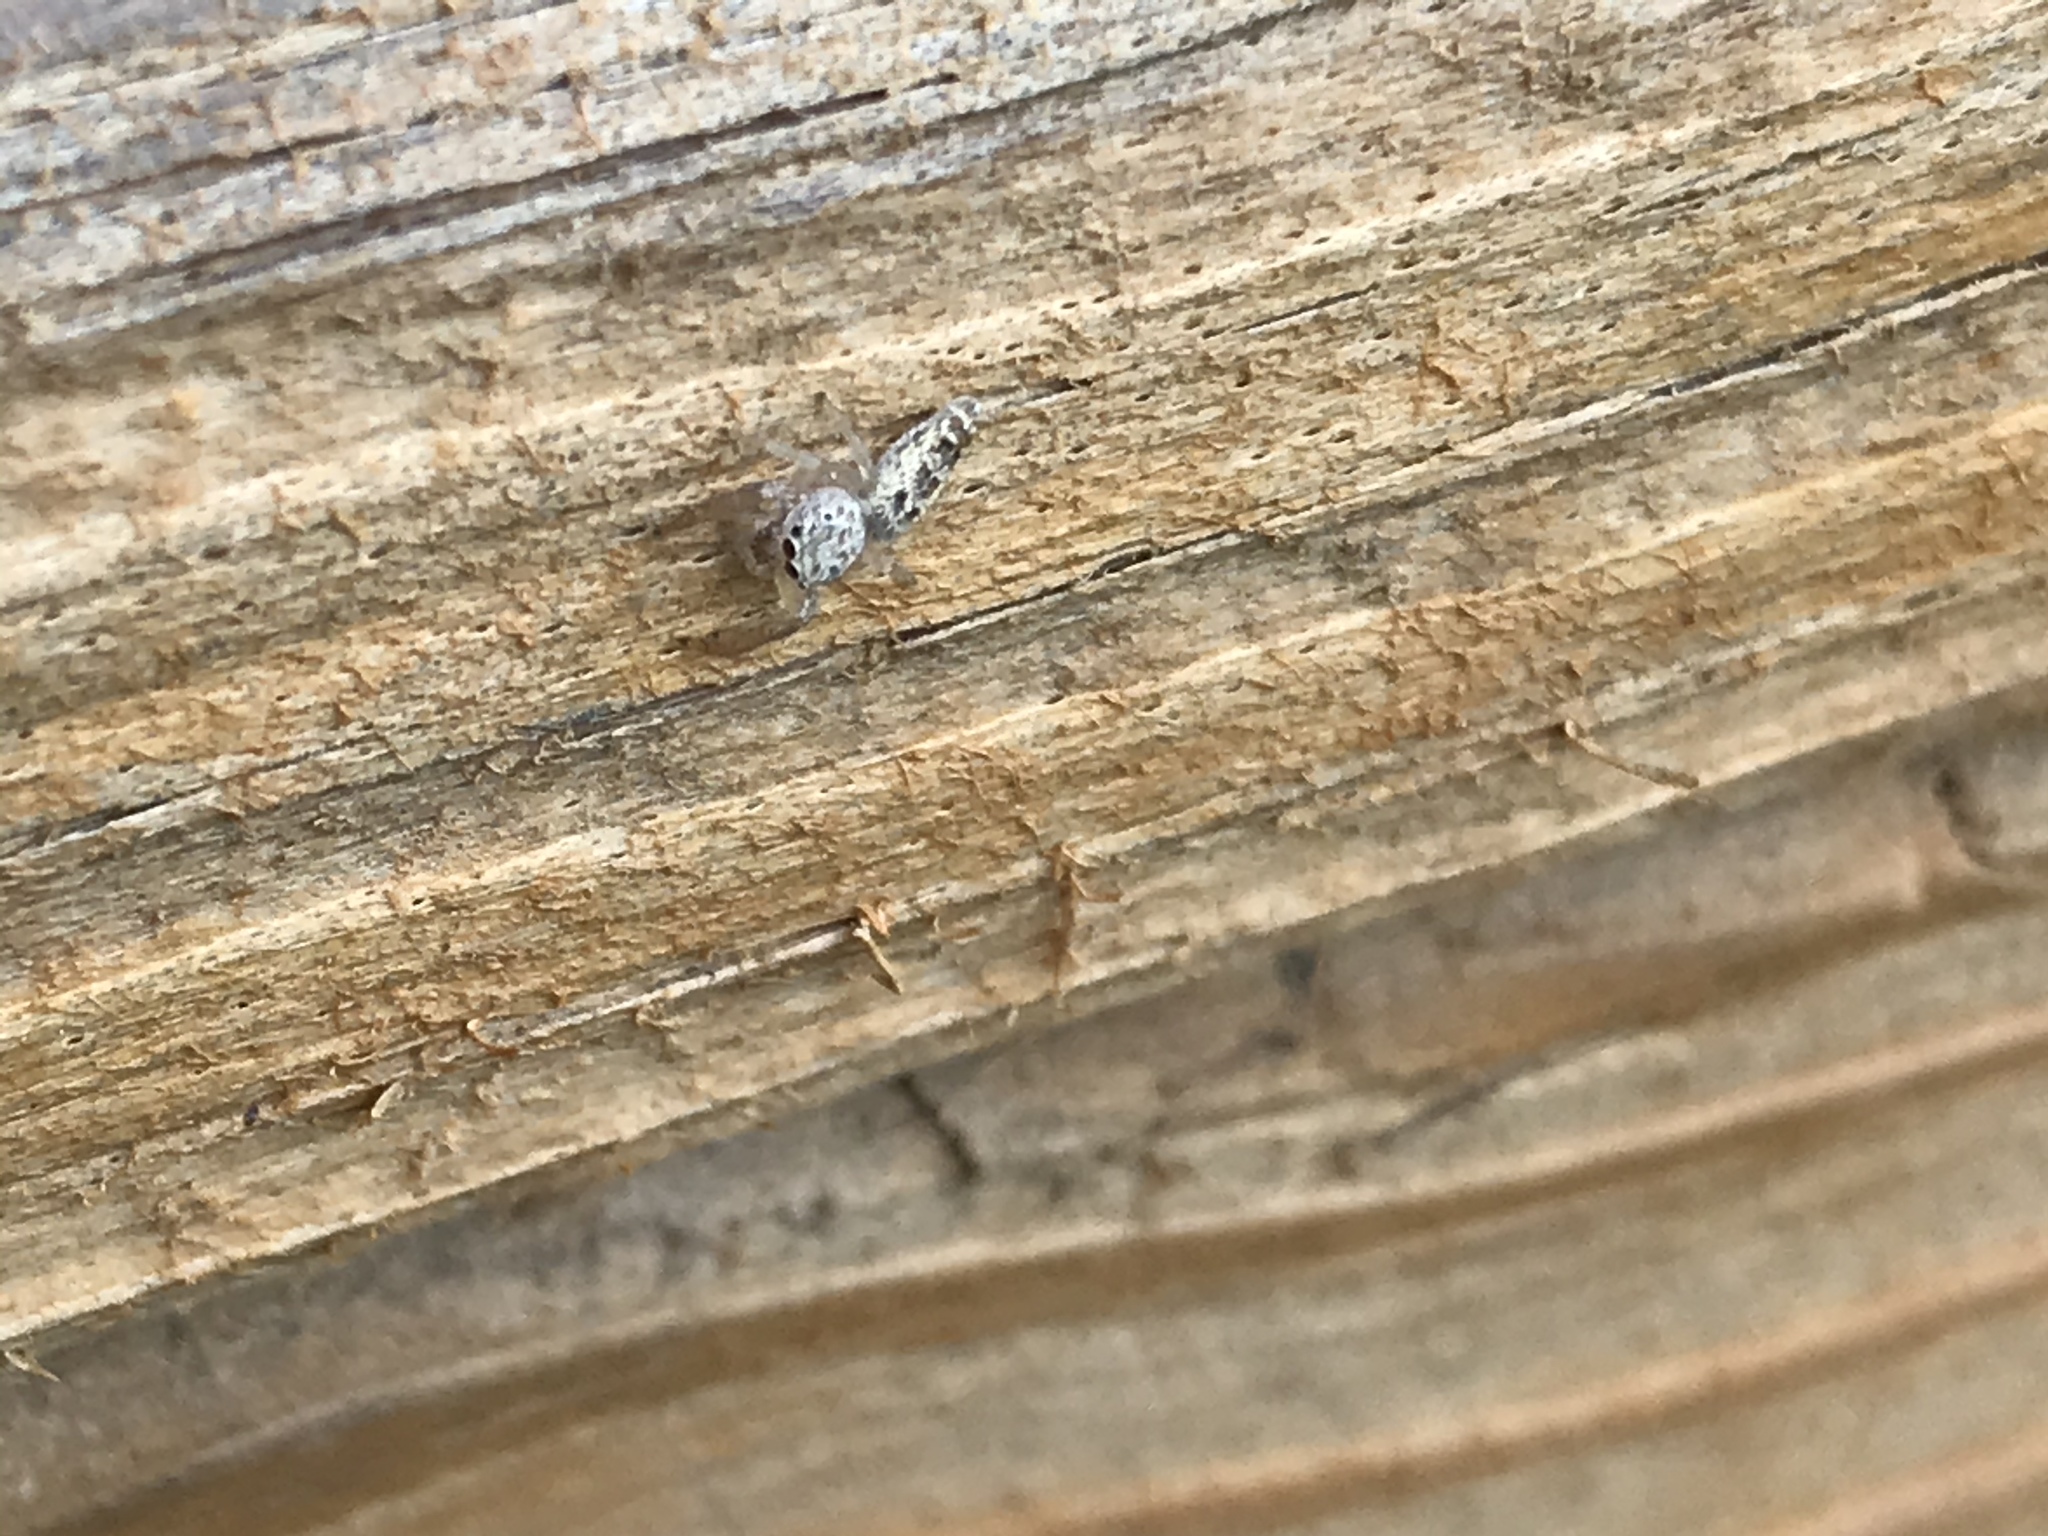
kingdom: Animalia
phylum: Arthropoda
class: Arachnida
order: Araneae
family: Salticidae
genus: Hentzia
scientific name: Hentzia mitrata
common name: White-jawed jumping spider
